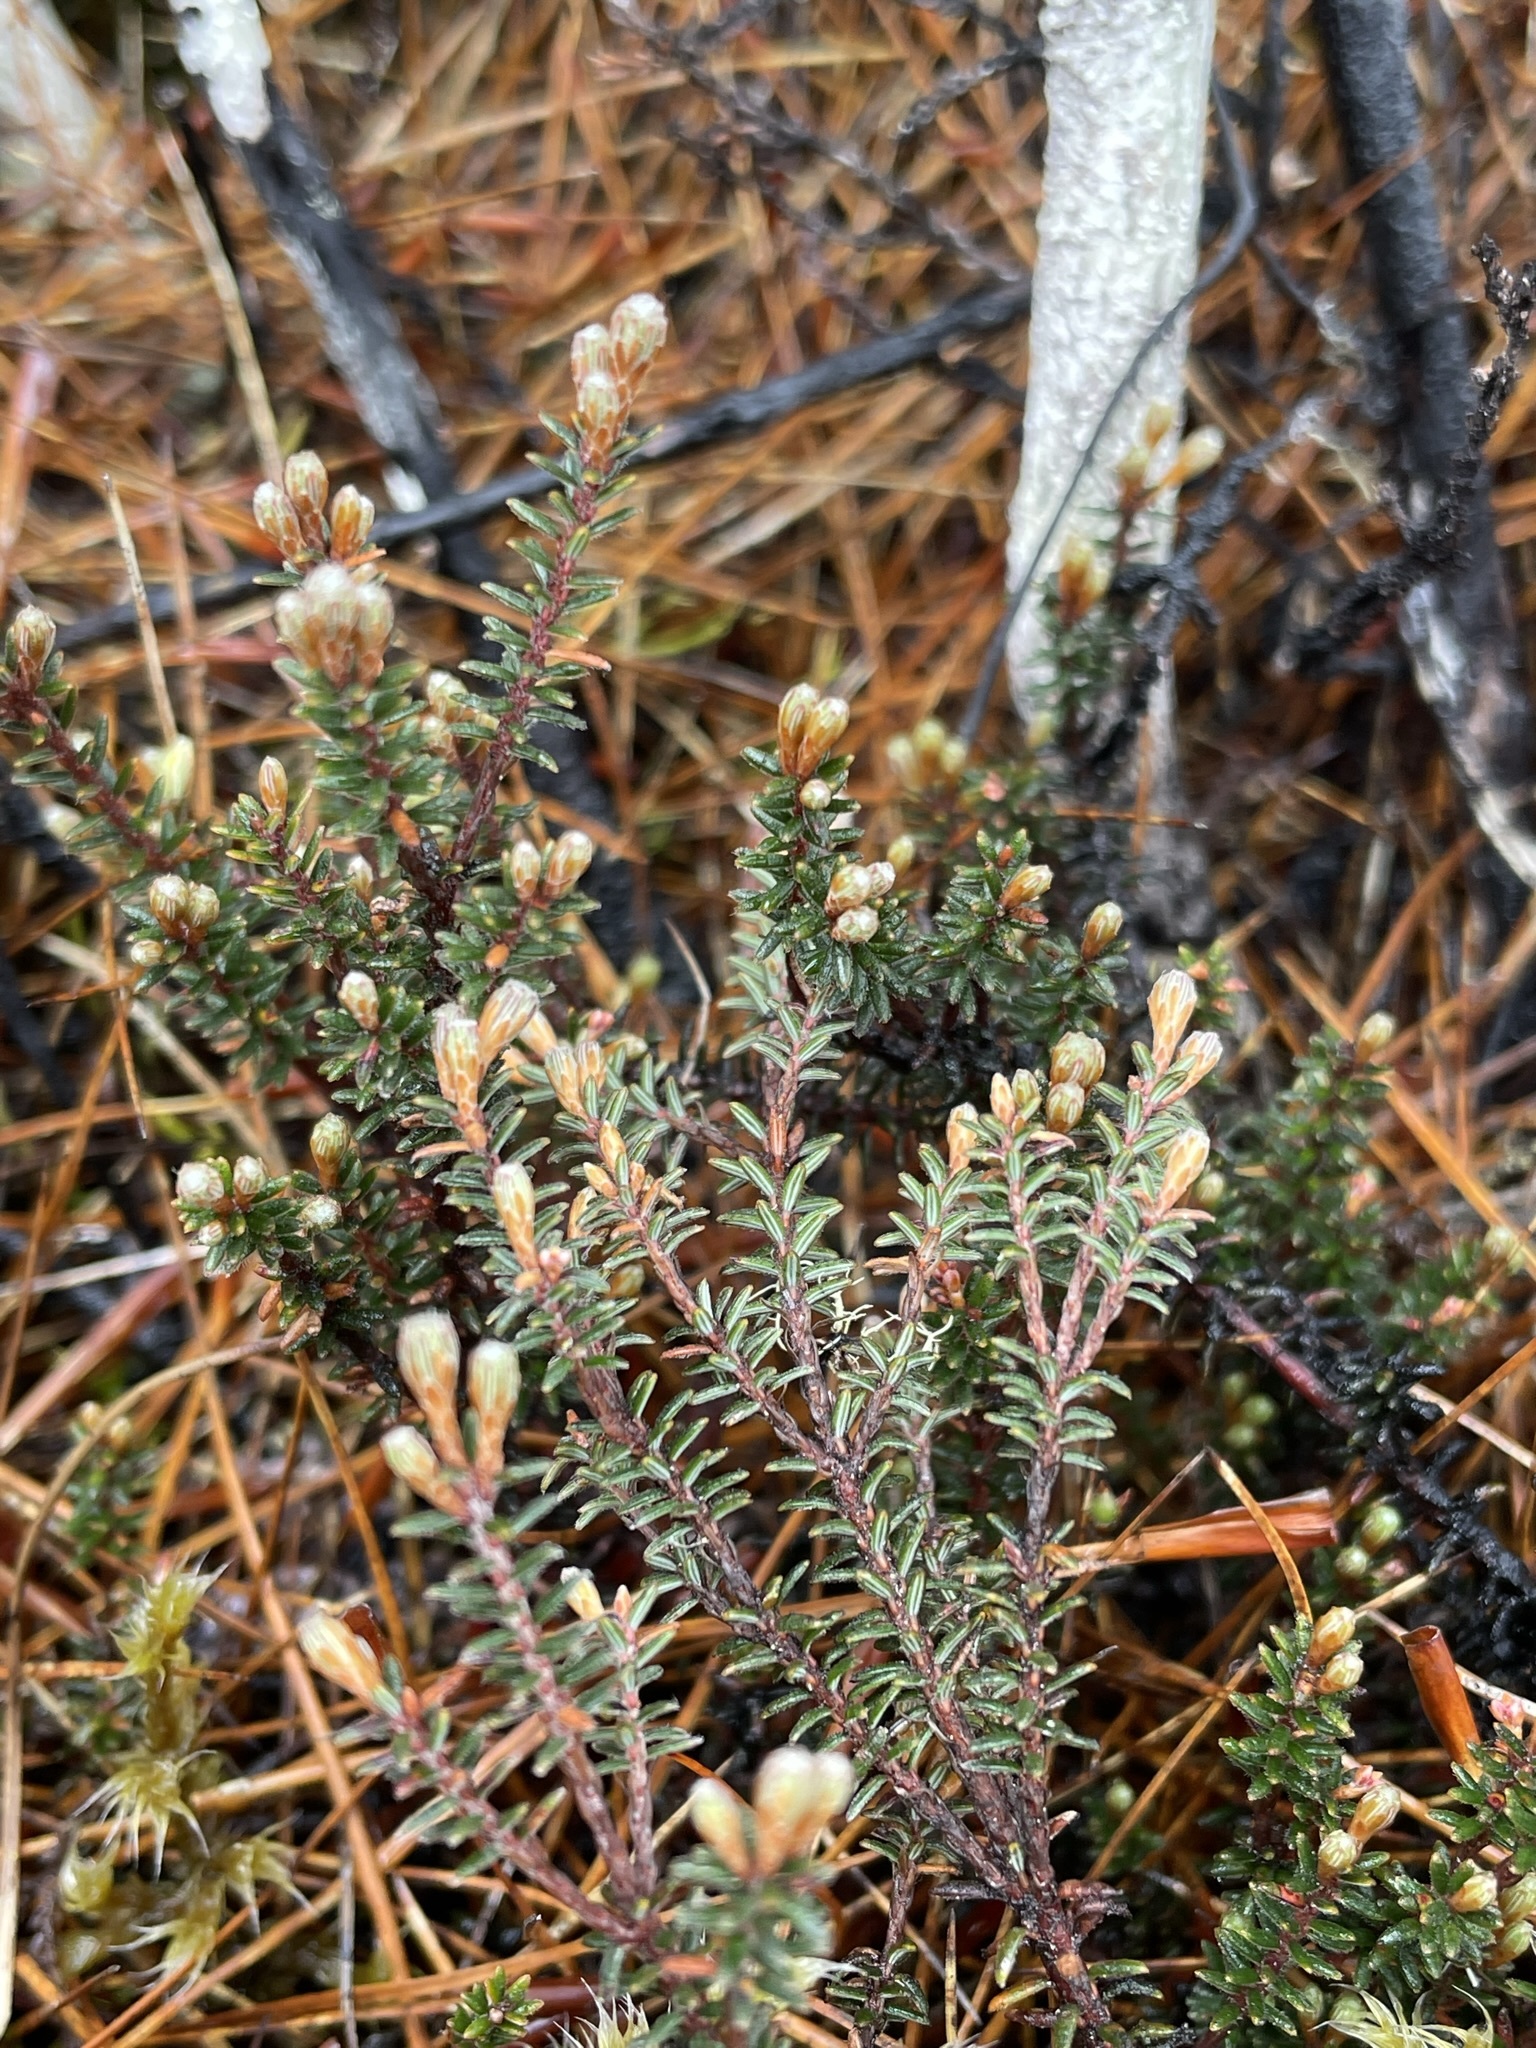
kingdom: Plantae
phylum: Tracheophyta
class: Magnoliopsida
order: Ericales
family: Ericaceae
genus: Androstoma
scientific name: Androstoma empetrifolia
